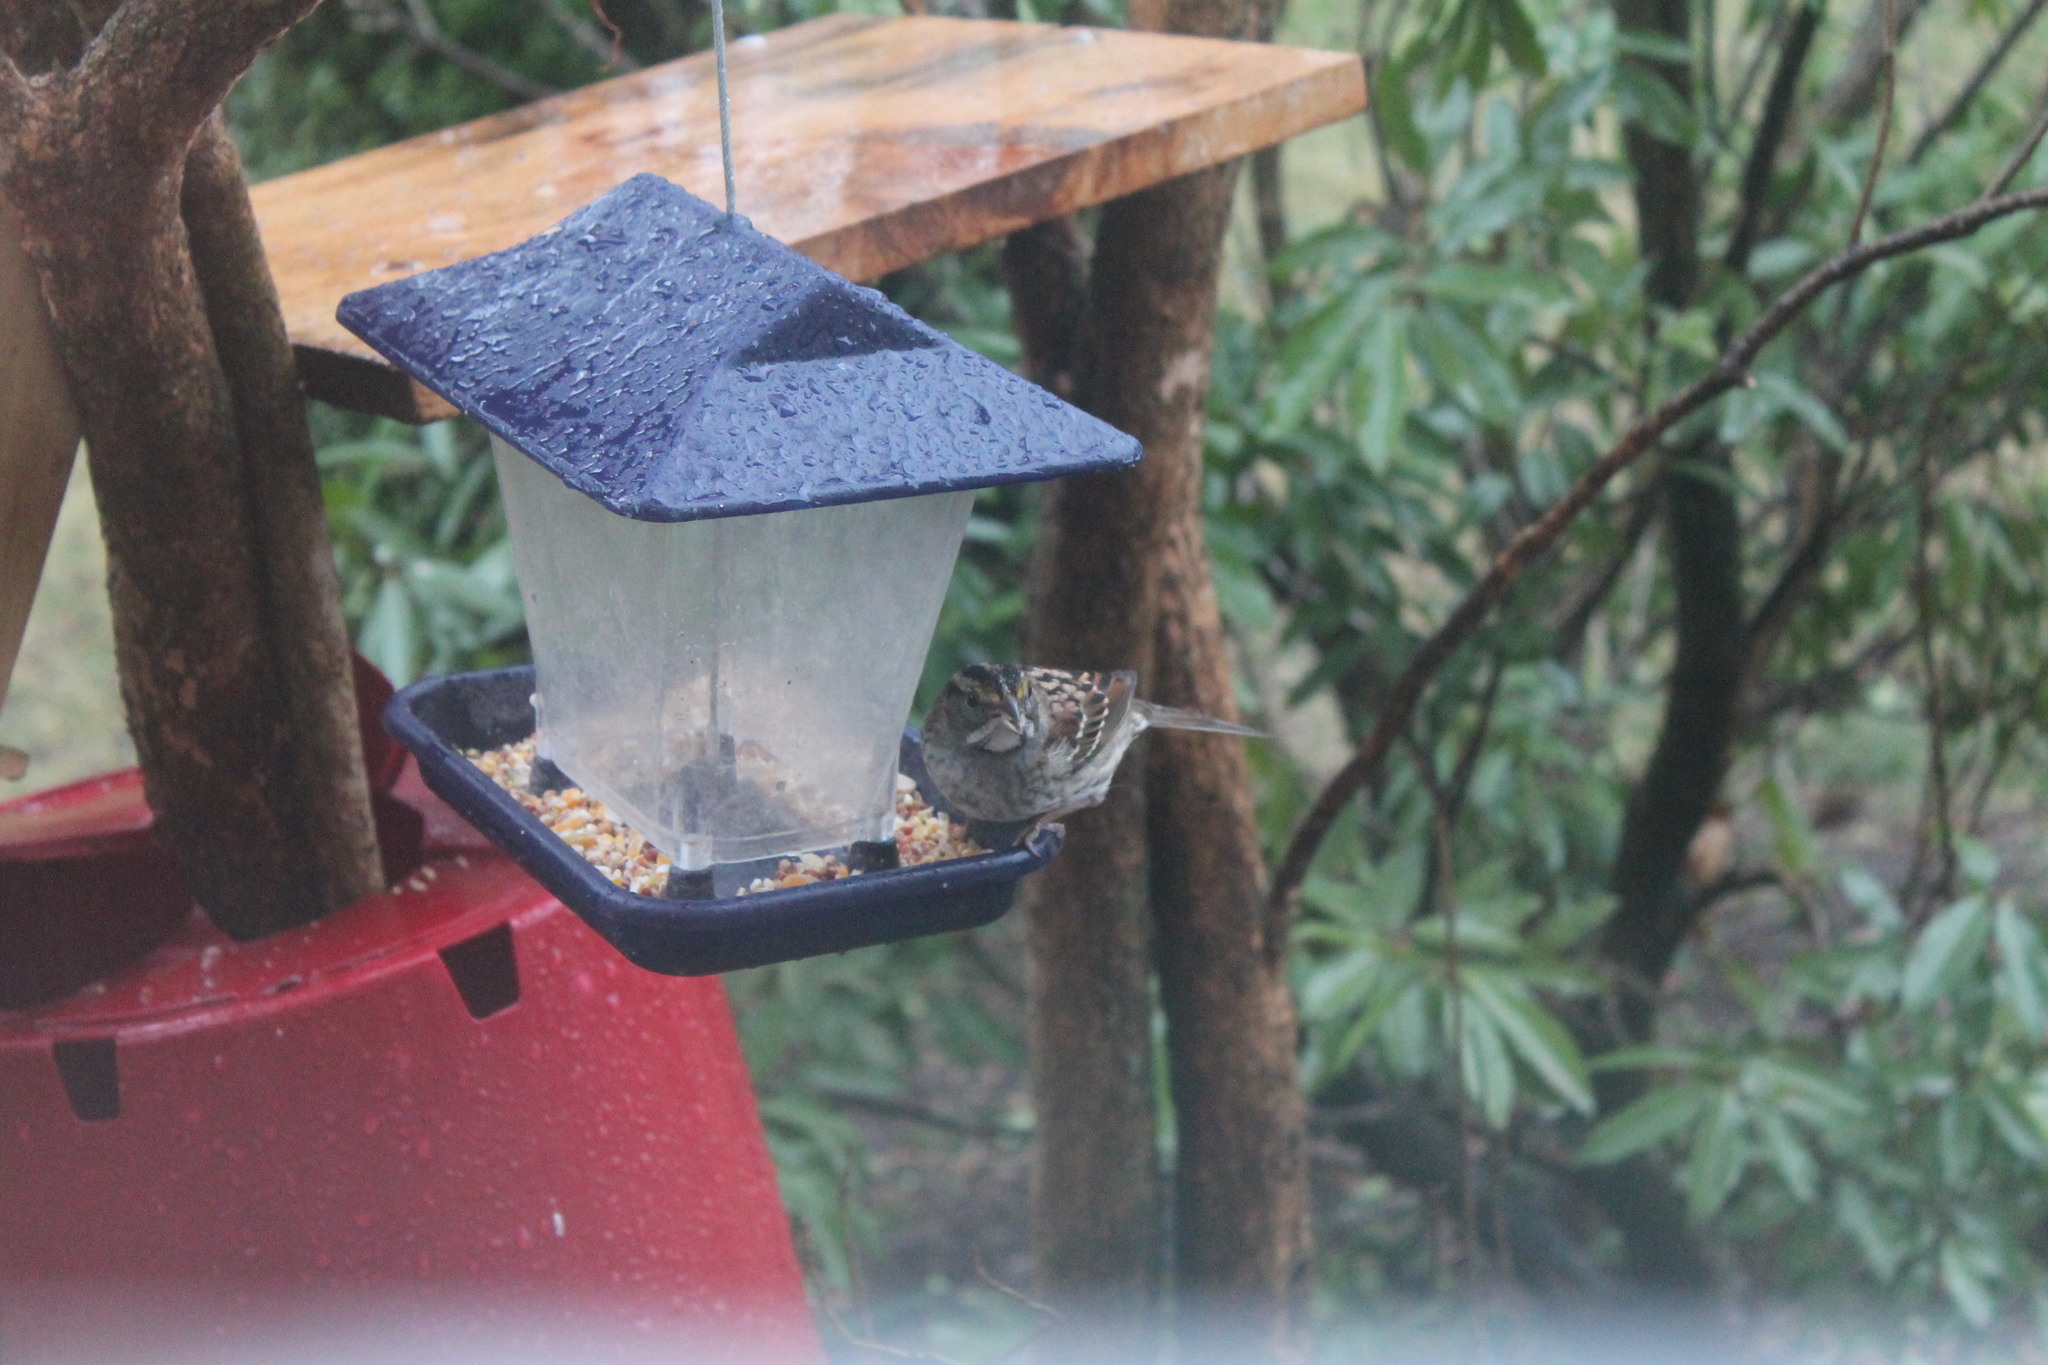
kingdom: Animalia
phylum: Chordata
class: Aves
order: Passeriformes
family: Passerellidae
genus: Zonotrichia
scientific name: Zonotrichia albicollis
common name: White-throated sparrow
